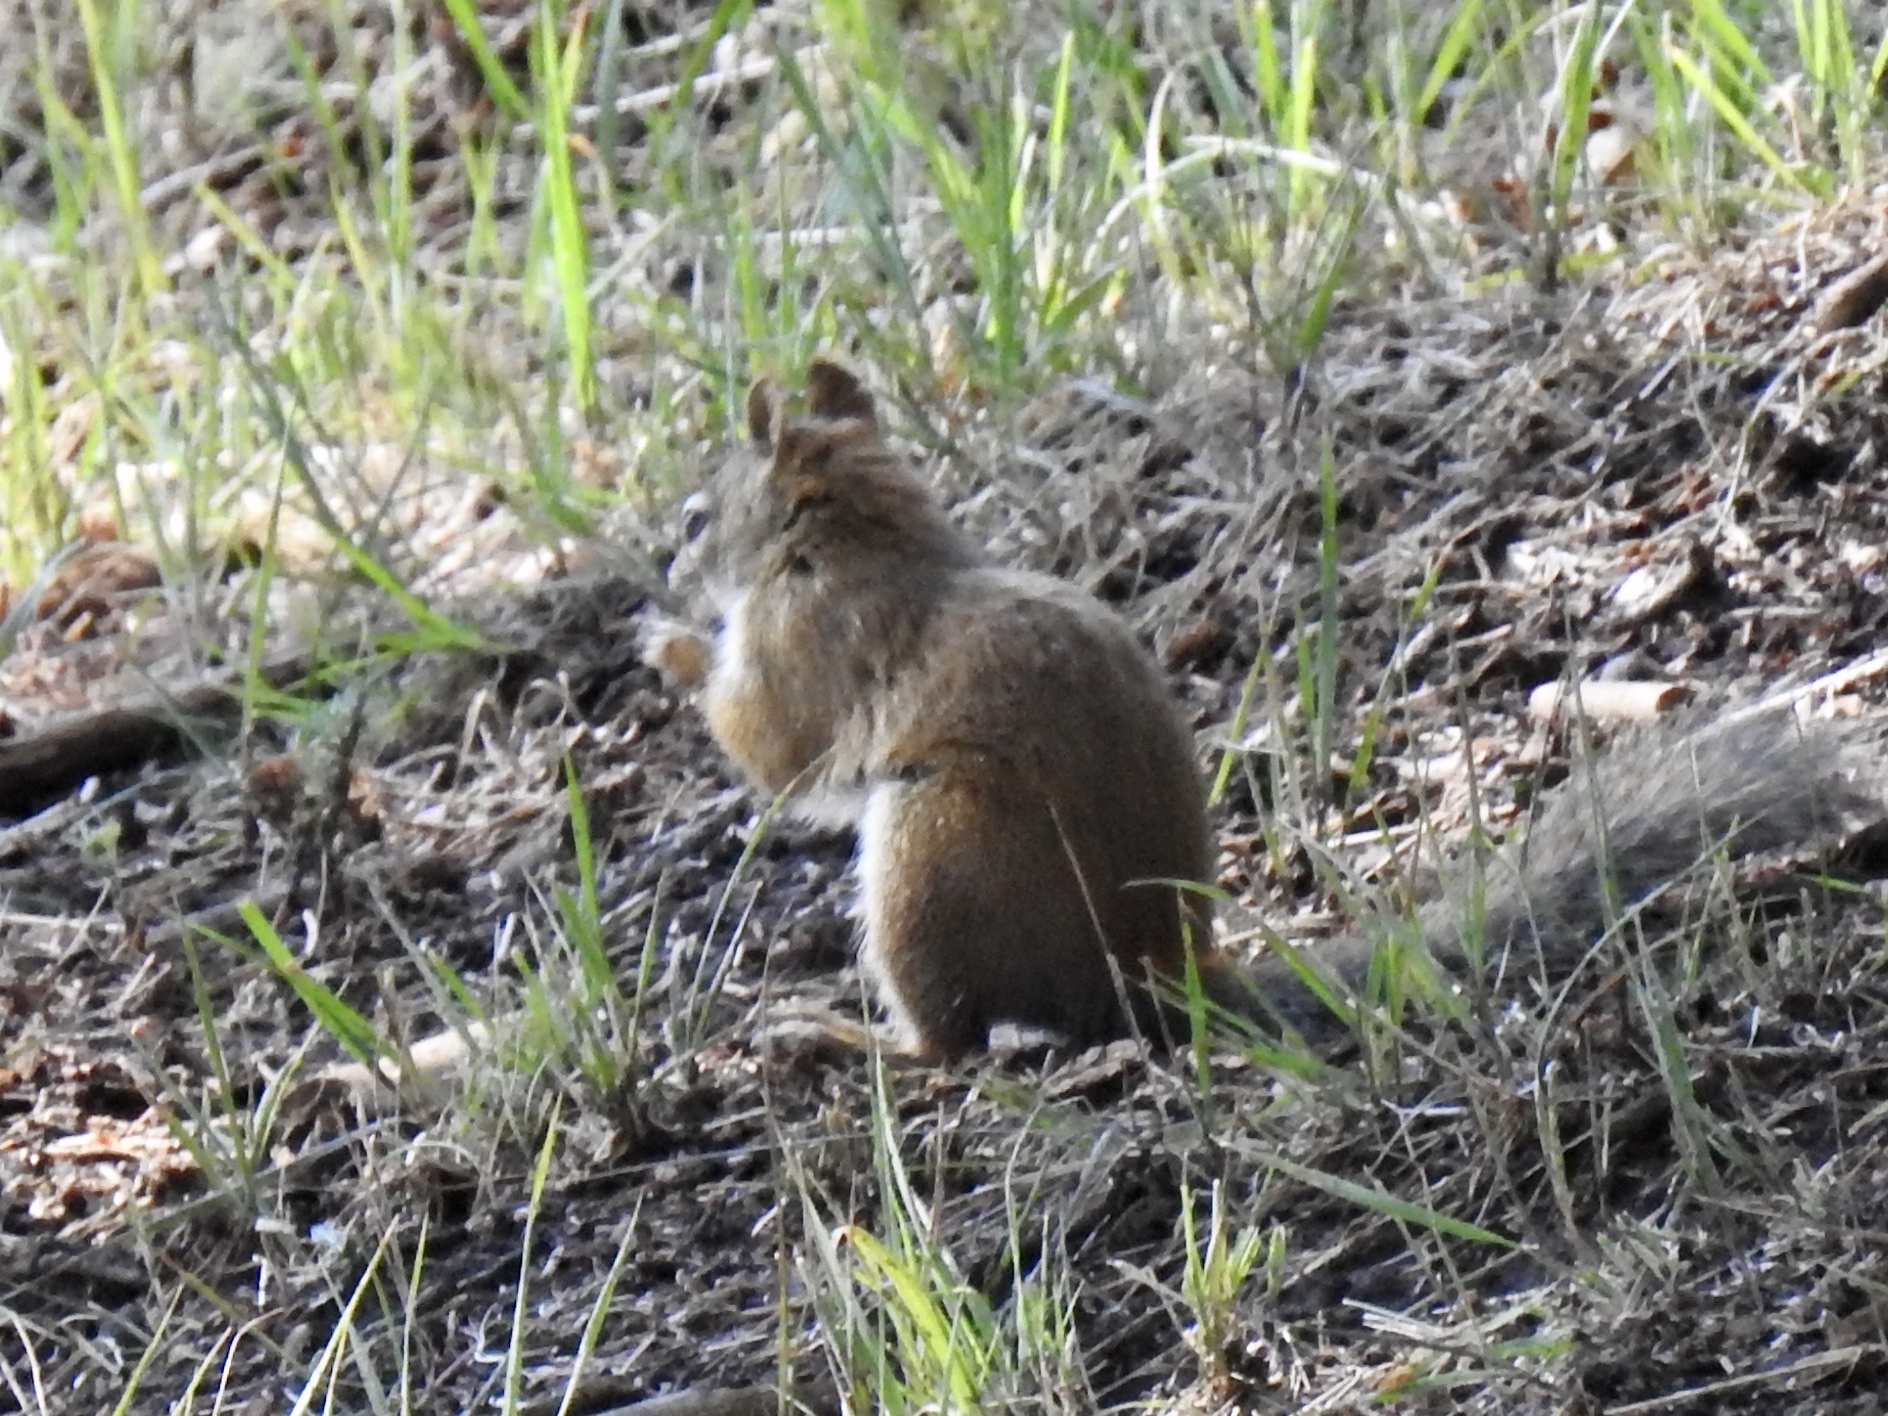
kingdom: Animalia
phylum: Chordata
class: Mammalia
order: Rodentia
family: Sciuridae
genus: Tamiasciurus
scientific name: Tamiasciurus hudsonicus
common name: Red squirrel
